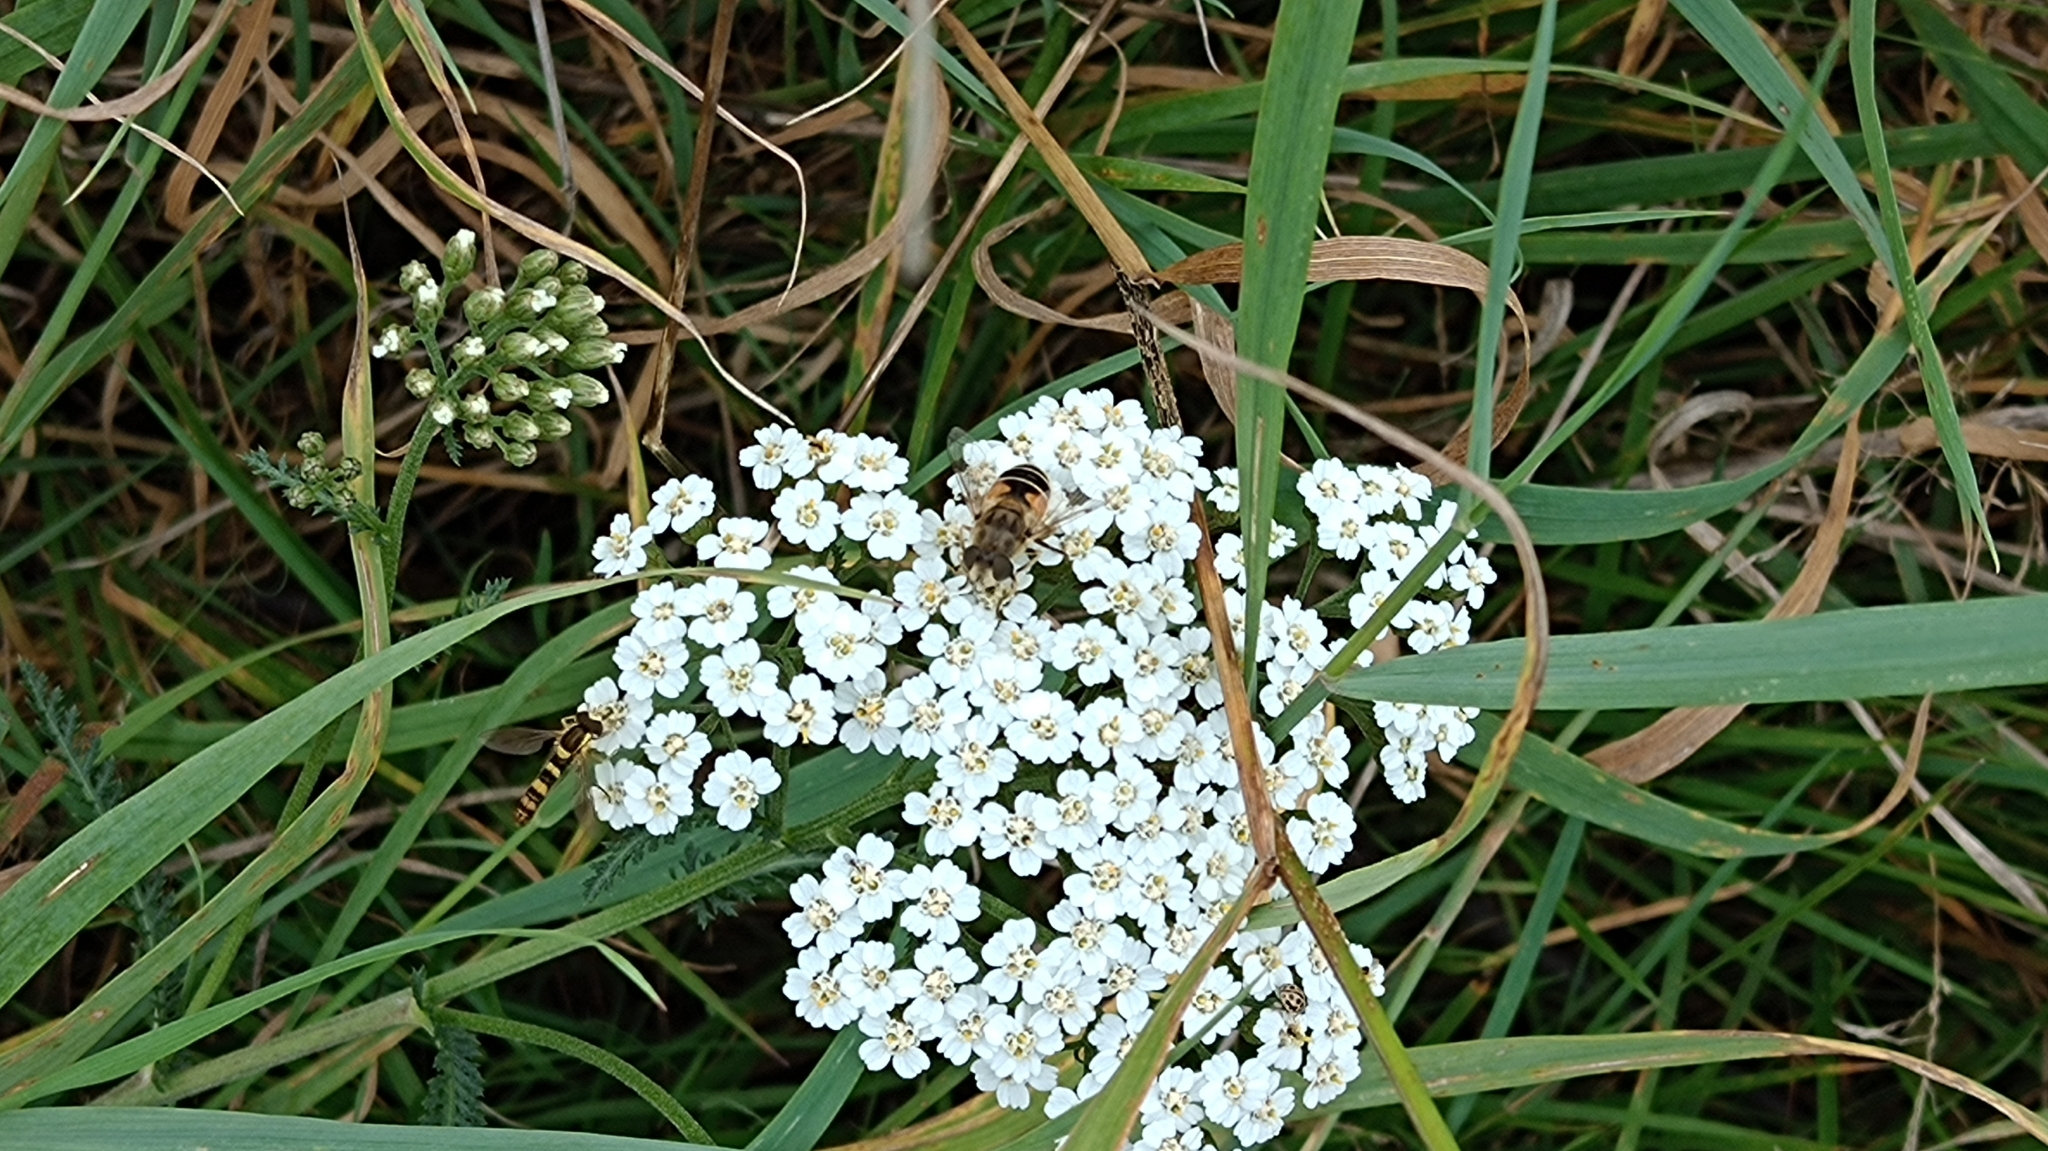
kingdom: Animalia
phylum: Arthropoda
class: Insecta
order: Diptera
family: Syrphidae
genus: Sphaerophoria
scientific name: Sphaerophoria scripta
